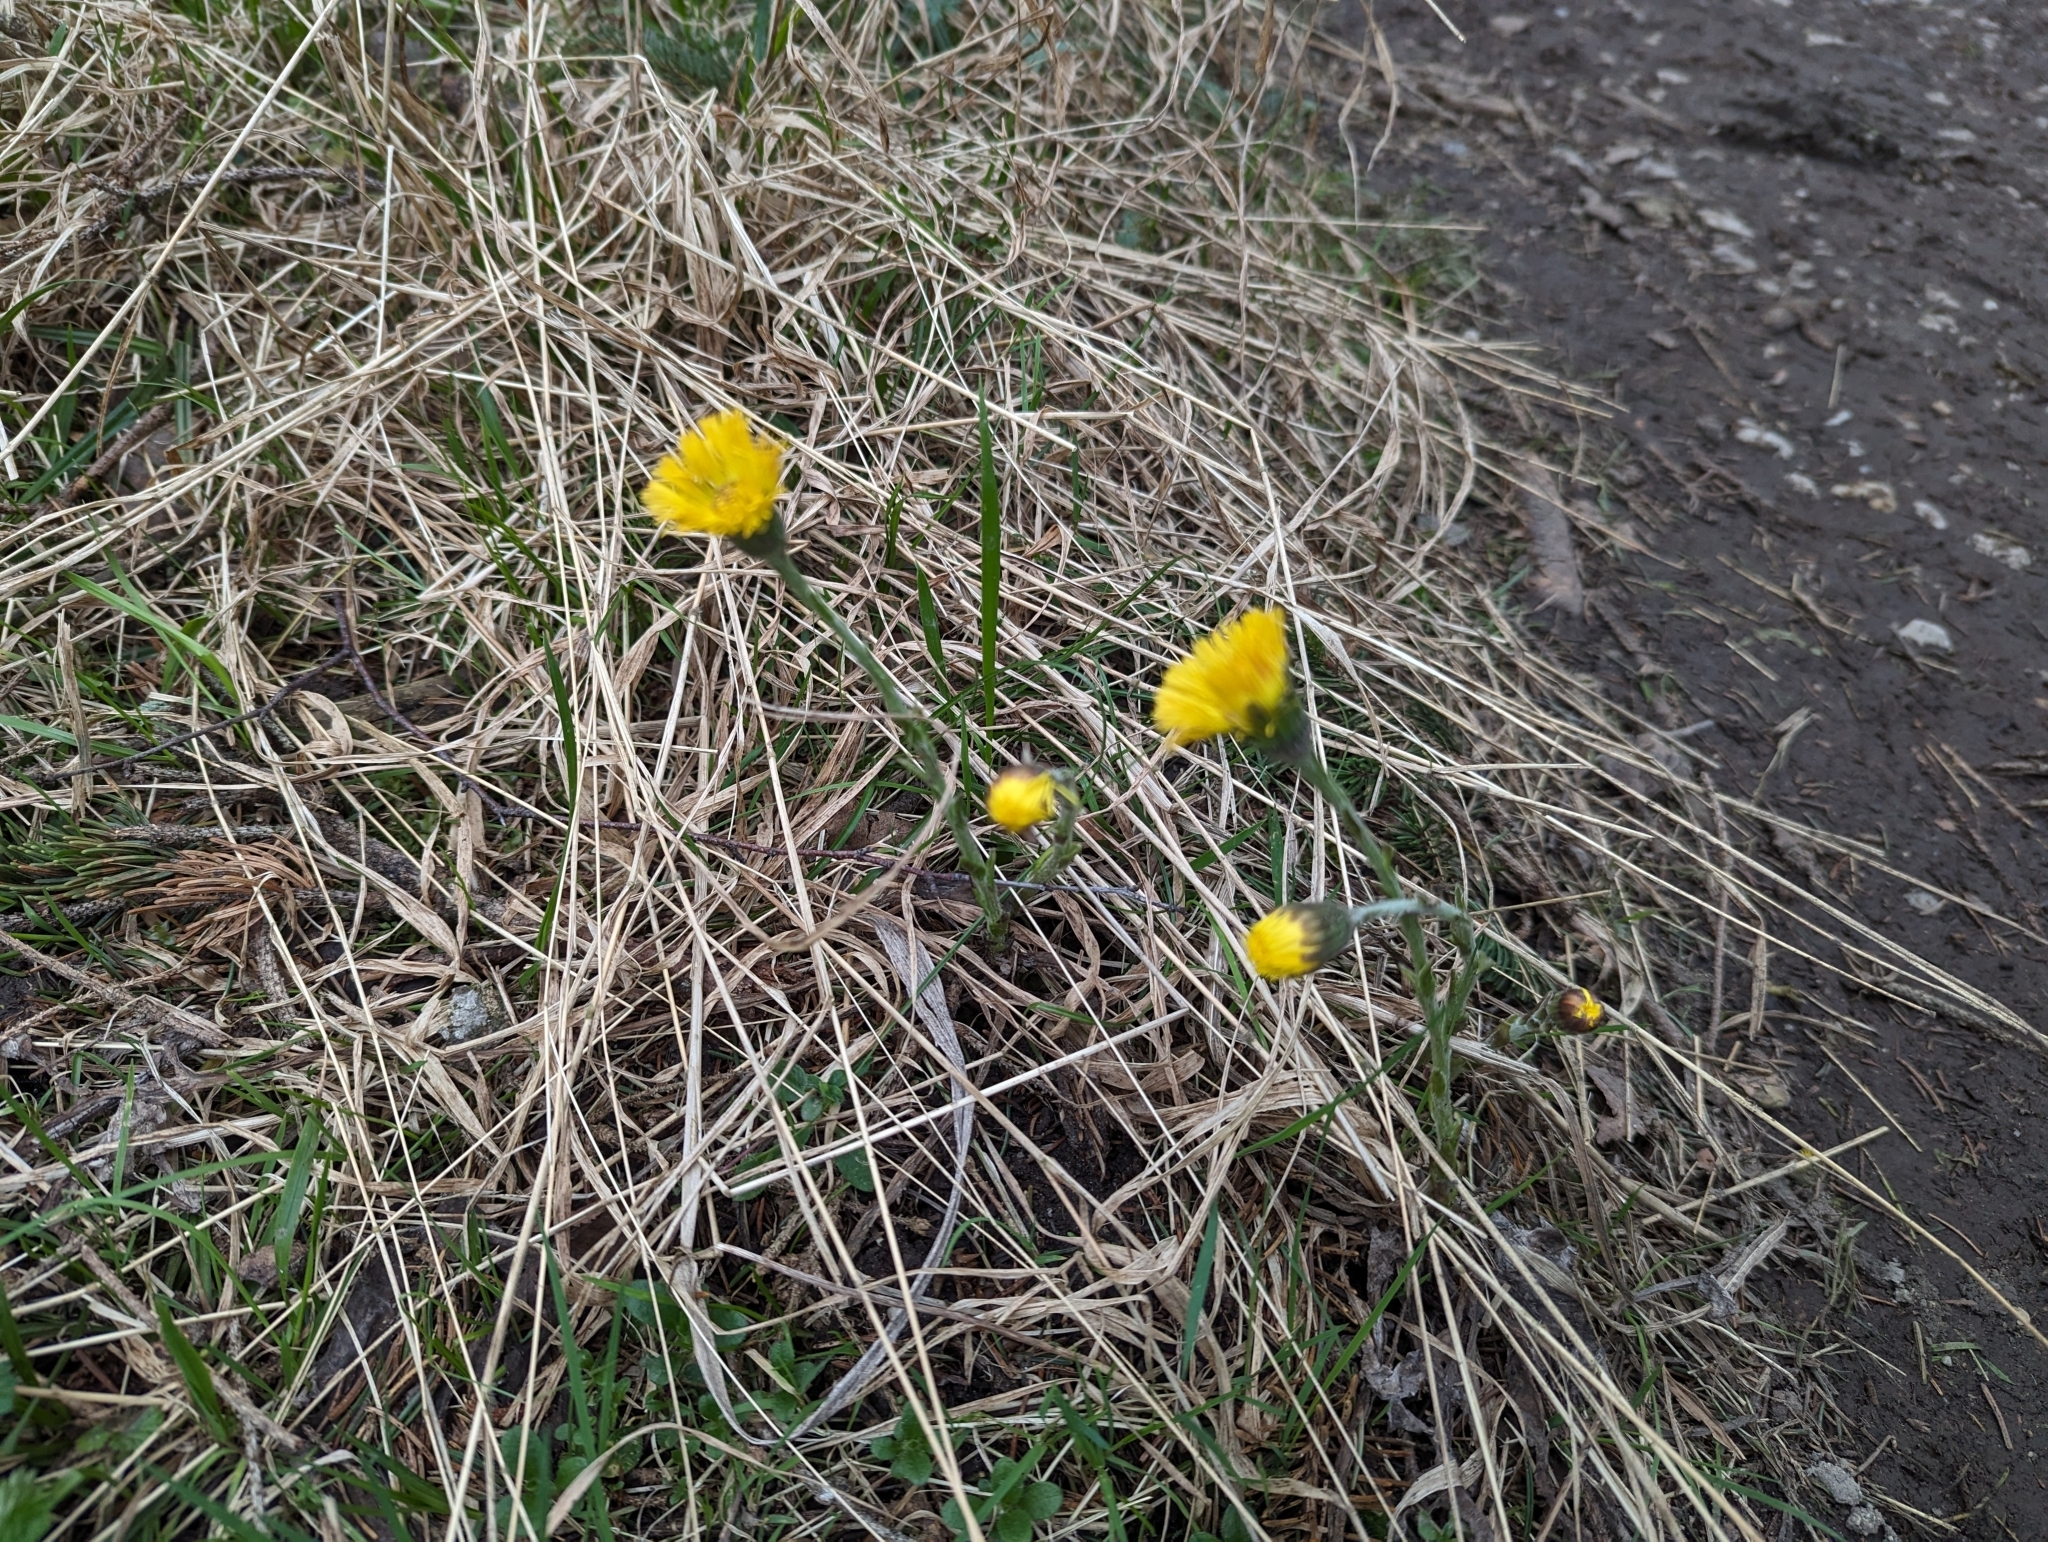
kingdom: Plantae
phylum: Tracheophyta
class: Magnoliopsida
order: Asterales
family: Asteraceae
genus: Tussilago
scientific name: Tussilago farfara
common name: Coltsfoot
